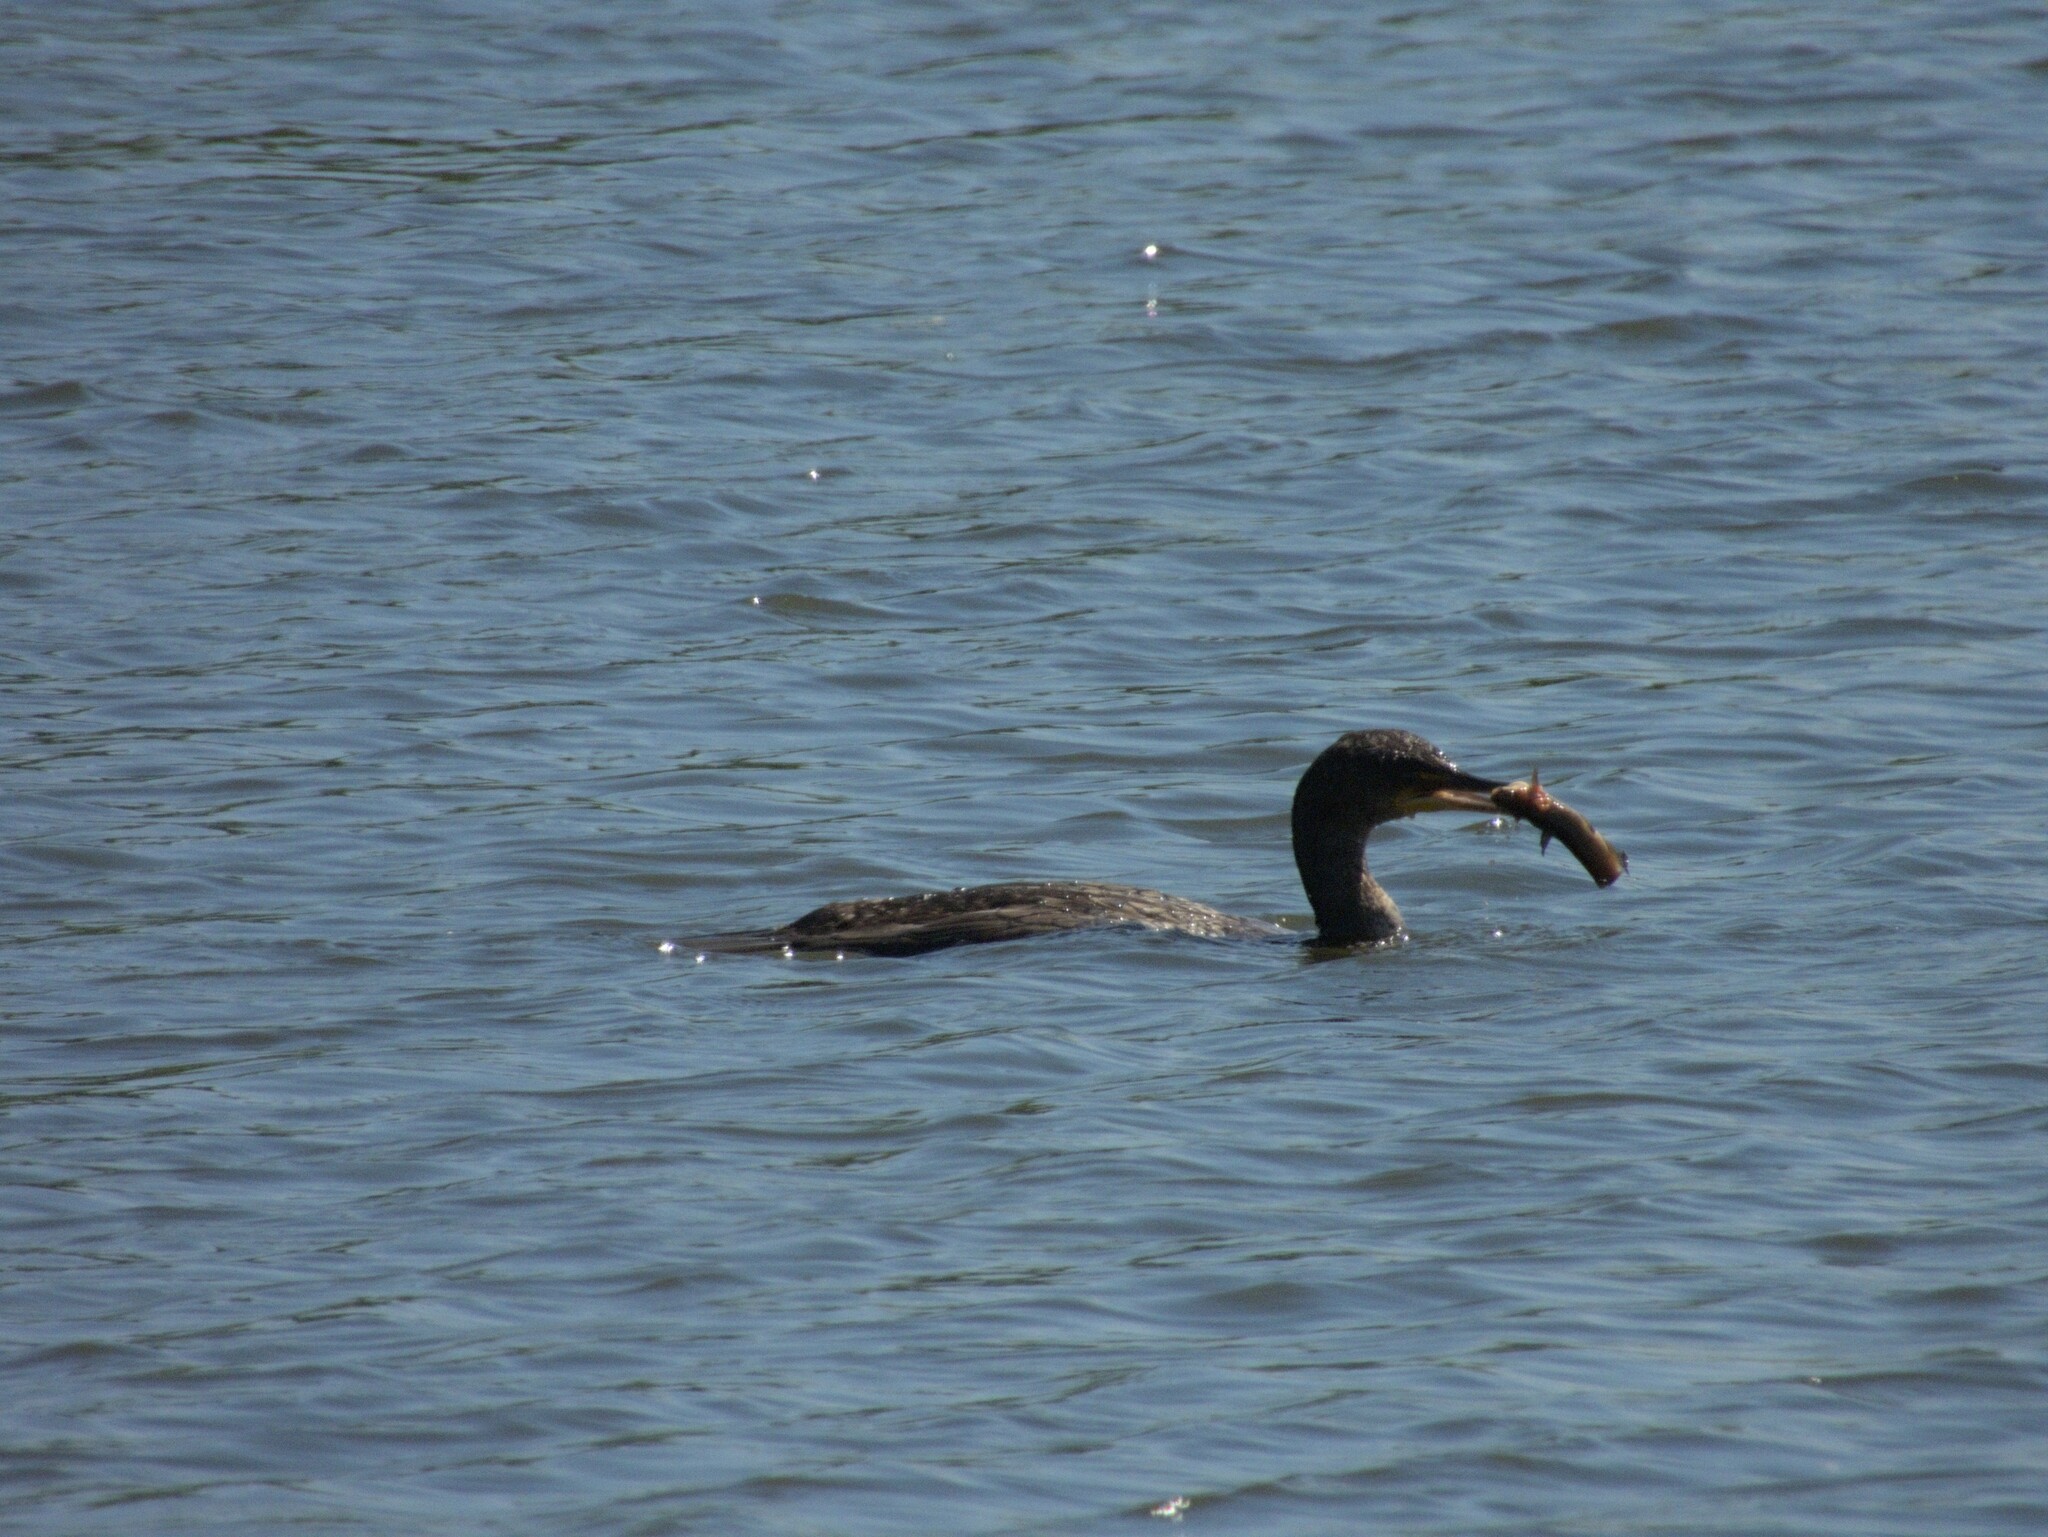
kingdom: Animalia
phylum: Chordata
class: Aves
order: Suliformes
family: Phalacrocoracidae
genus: Phalacrocorax
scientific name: Phalacrocorax auritus
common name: Double-crested cormorant
